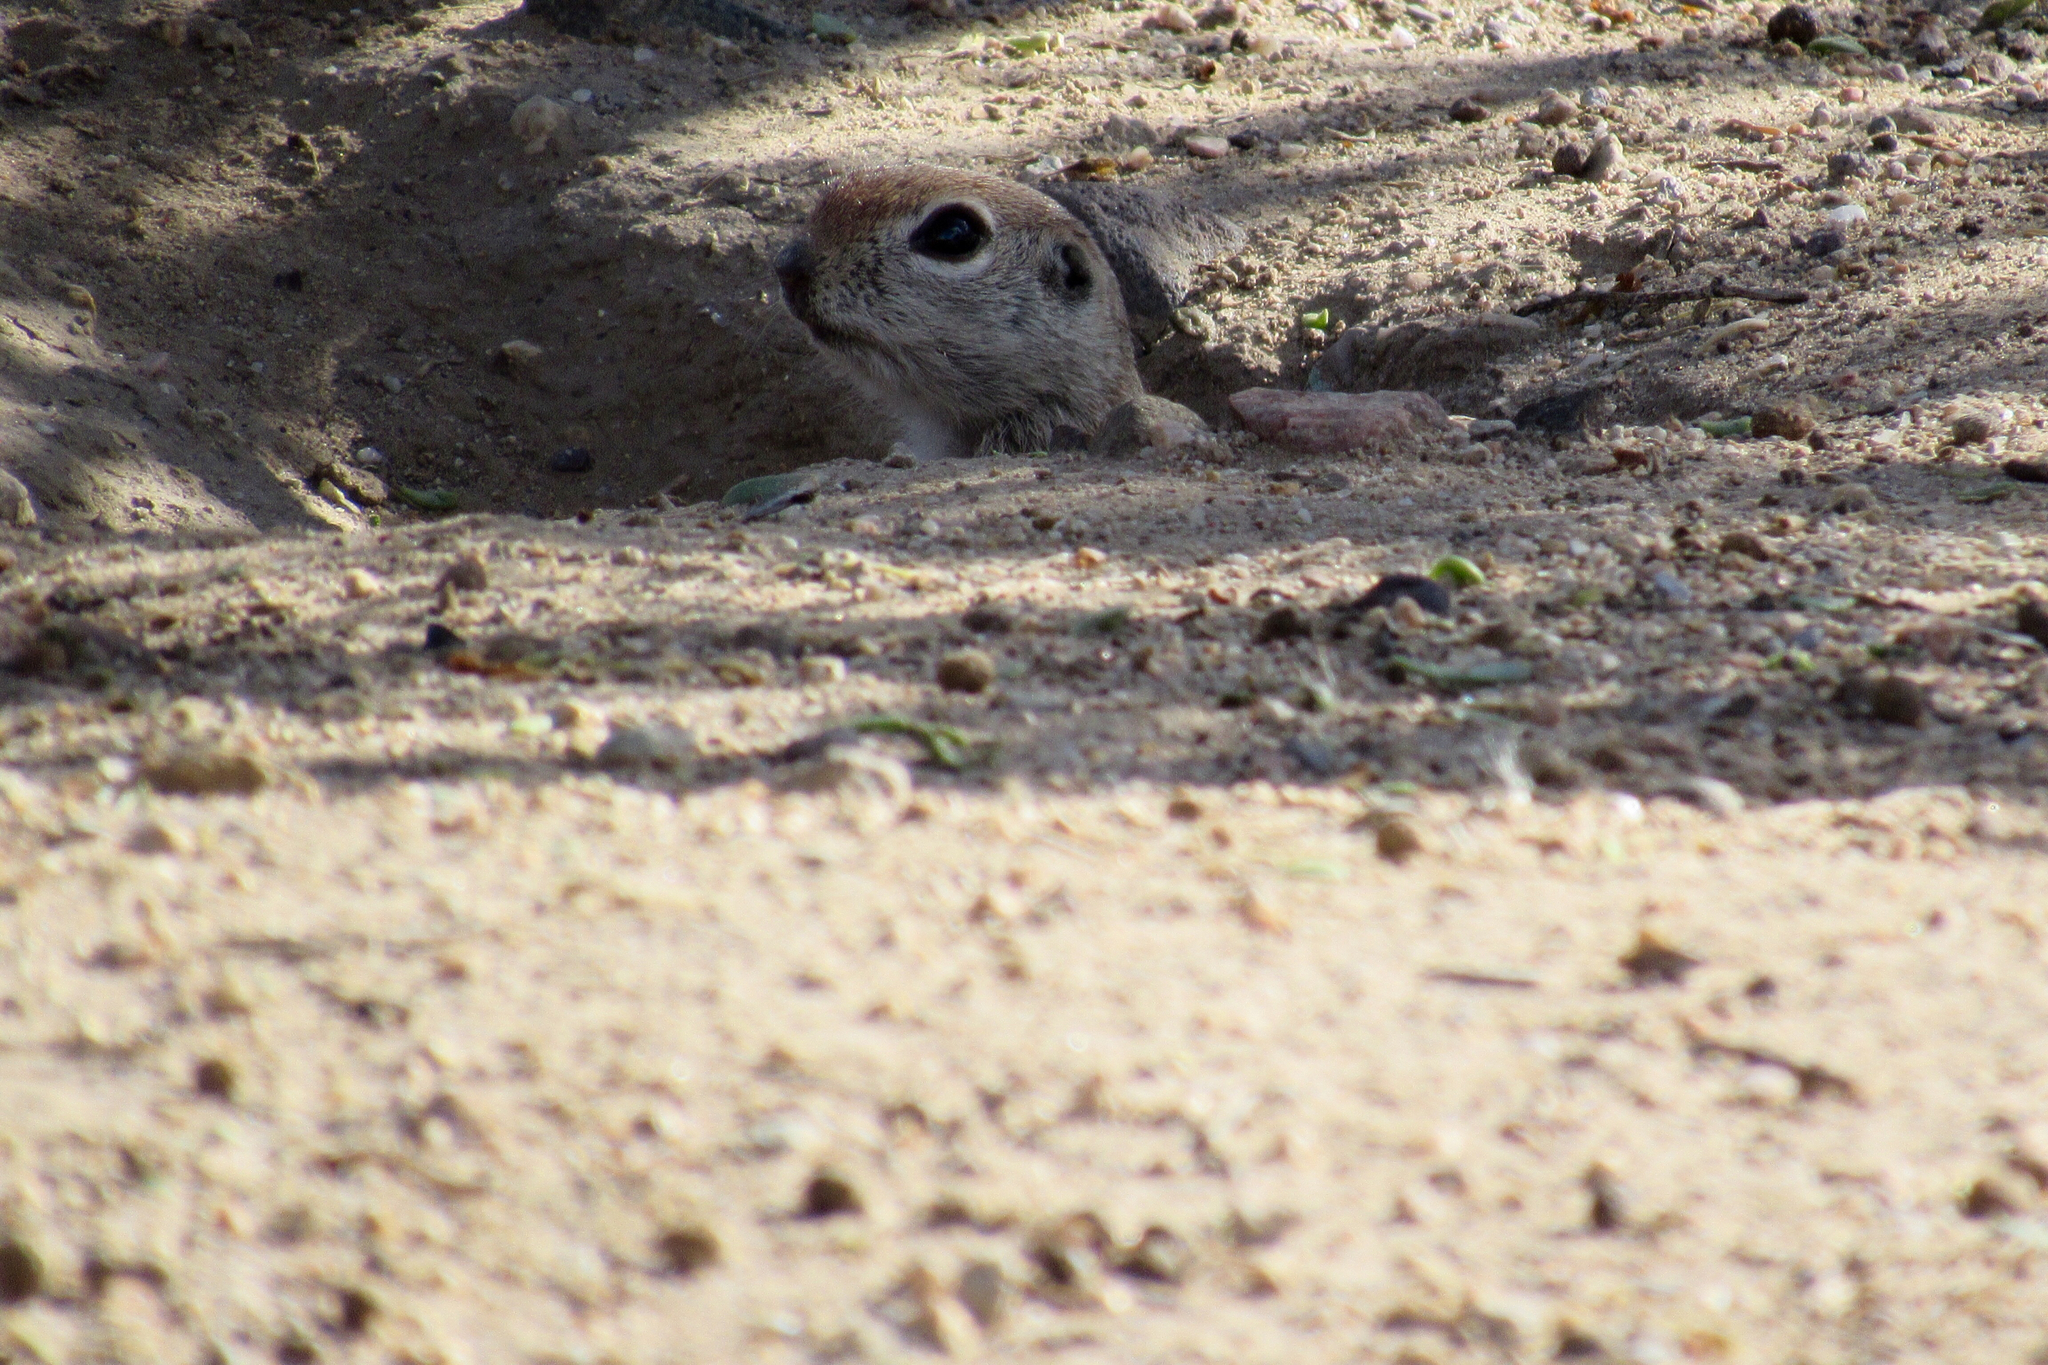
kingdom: Animalia
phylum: Chordata
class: Mammalia
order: Rodentia
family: Sciuridae
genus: Xerospermophilus
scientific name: Xerospermophilus tereticaudus
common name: Round-tailed ground squirrel
